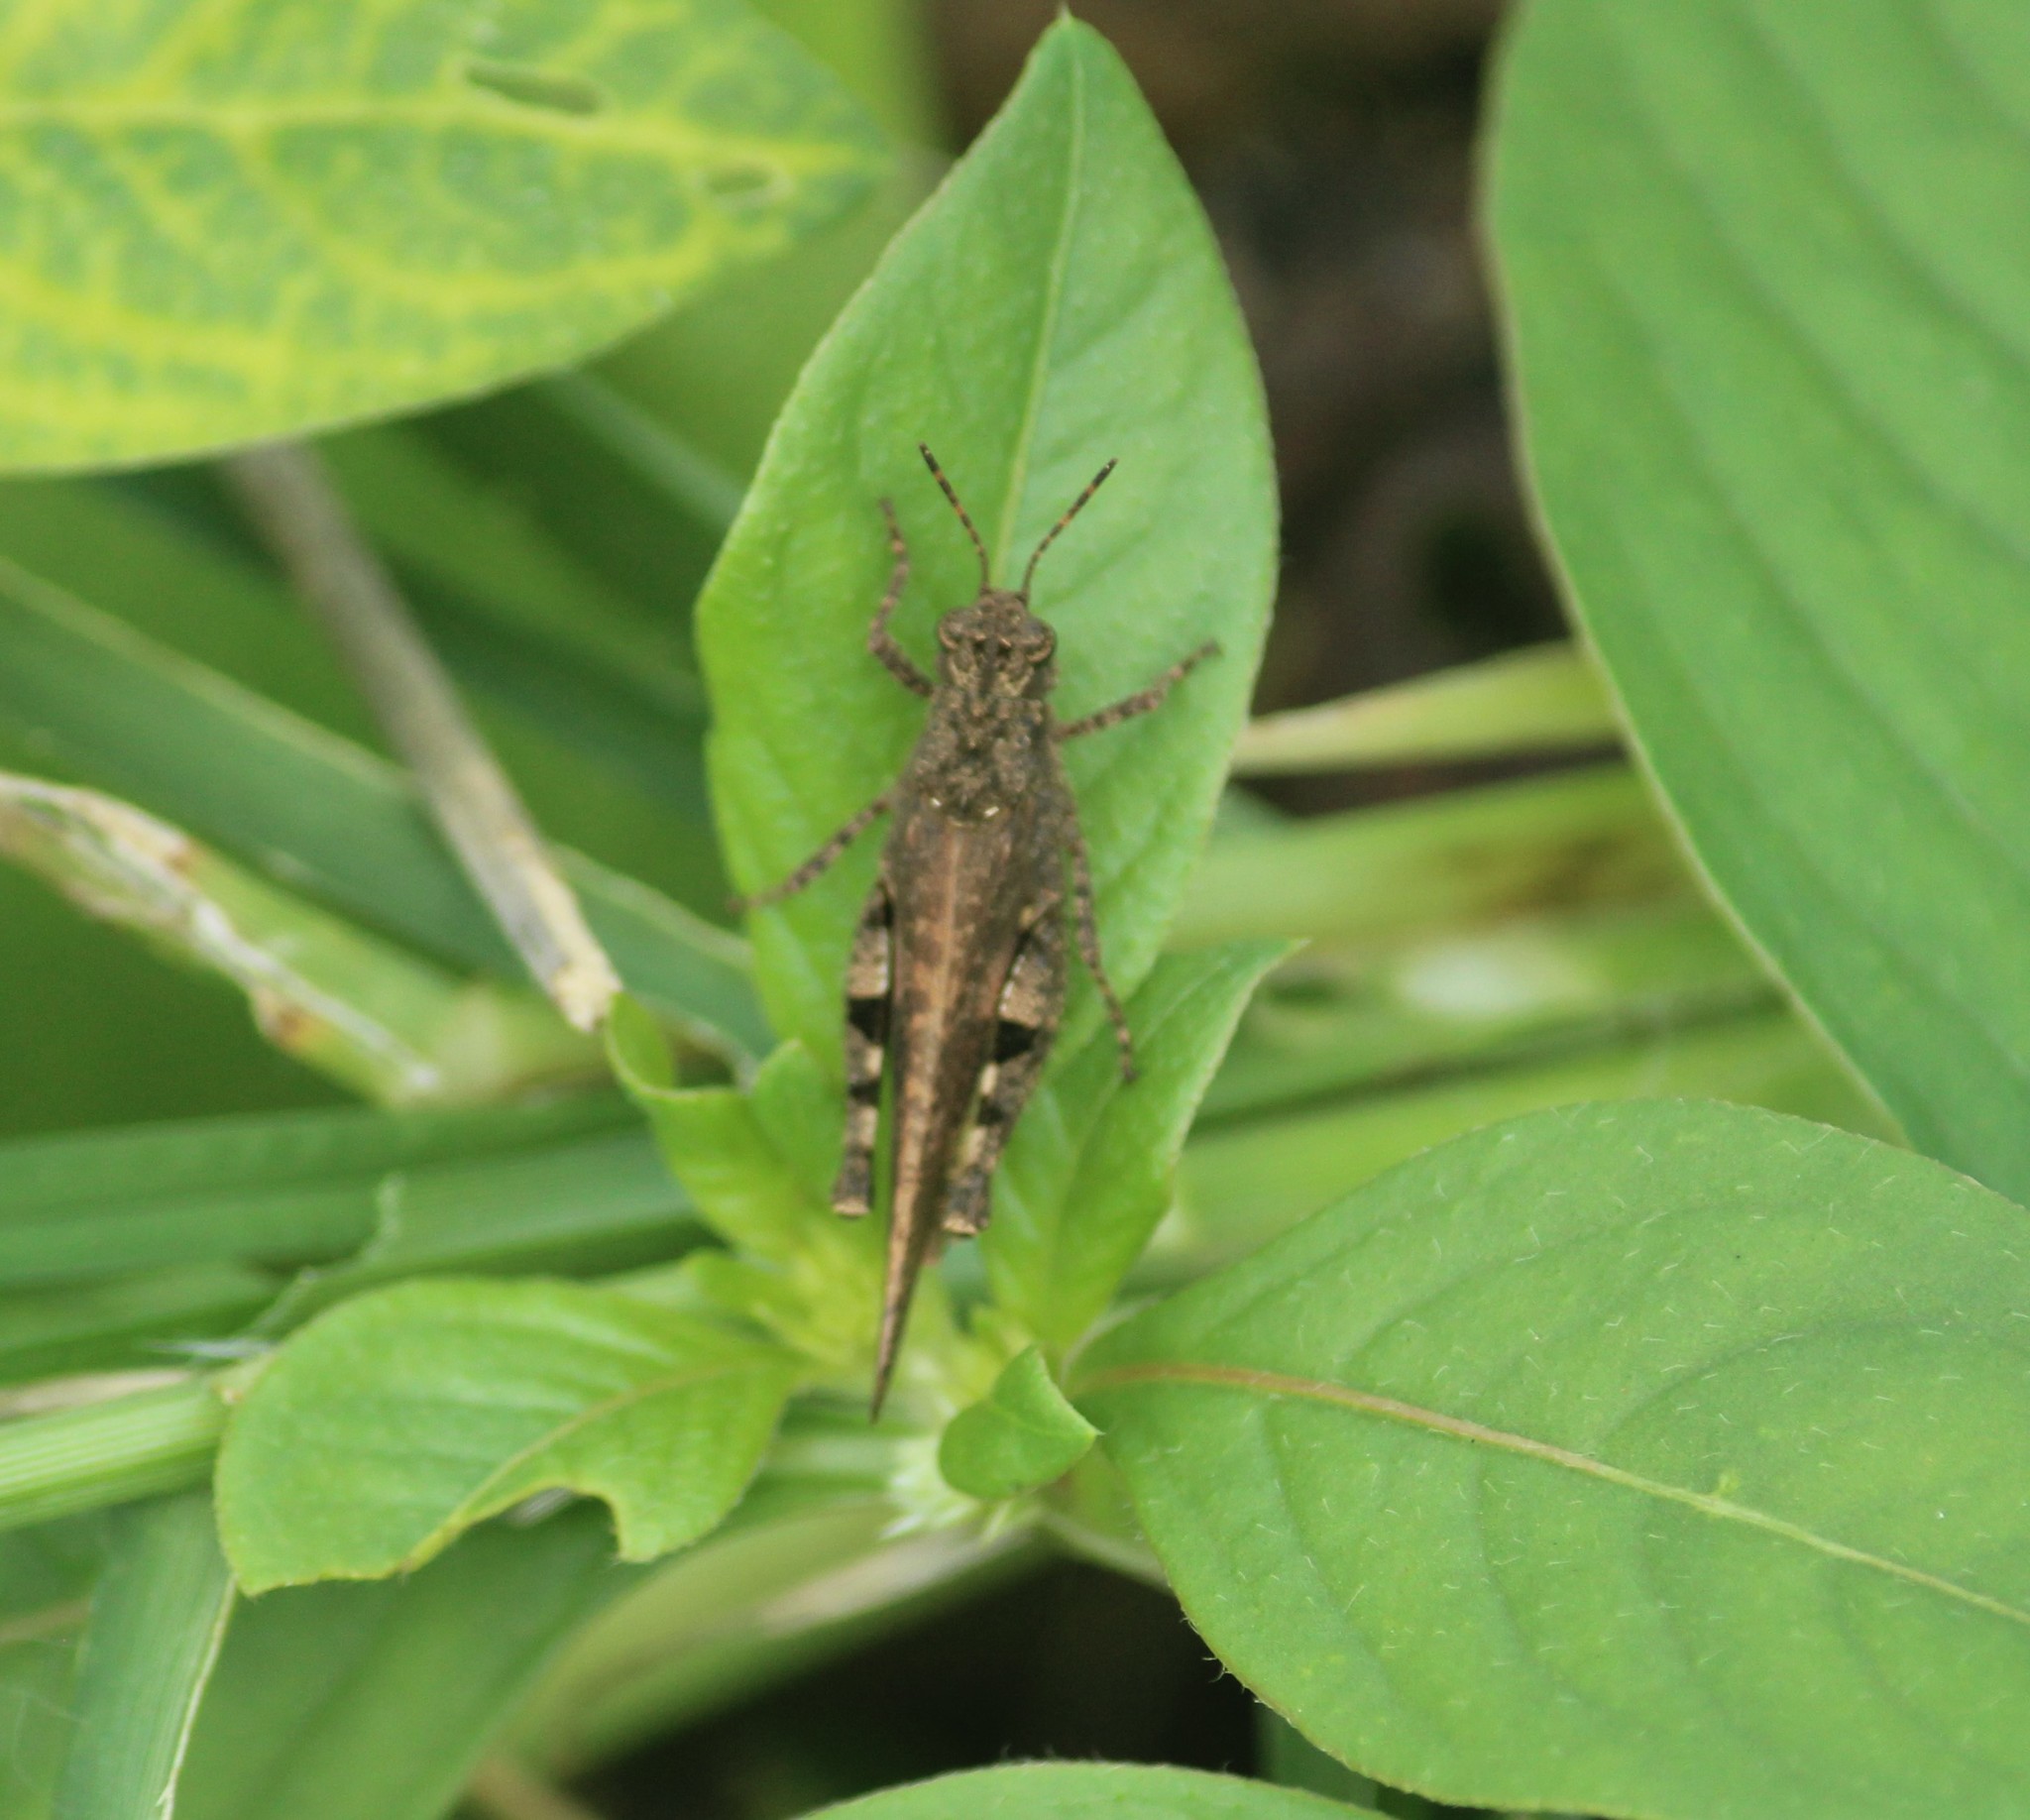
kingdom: Animalia
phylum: Arthropoda
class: Insecta
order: Orthoptera
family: Acrididae
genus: Trilophidia
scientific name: Trilophidia annulata
